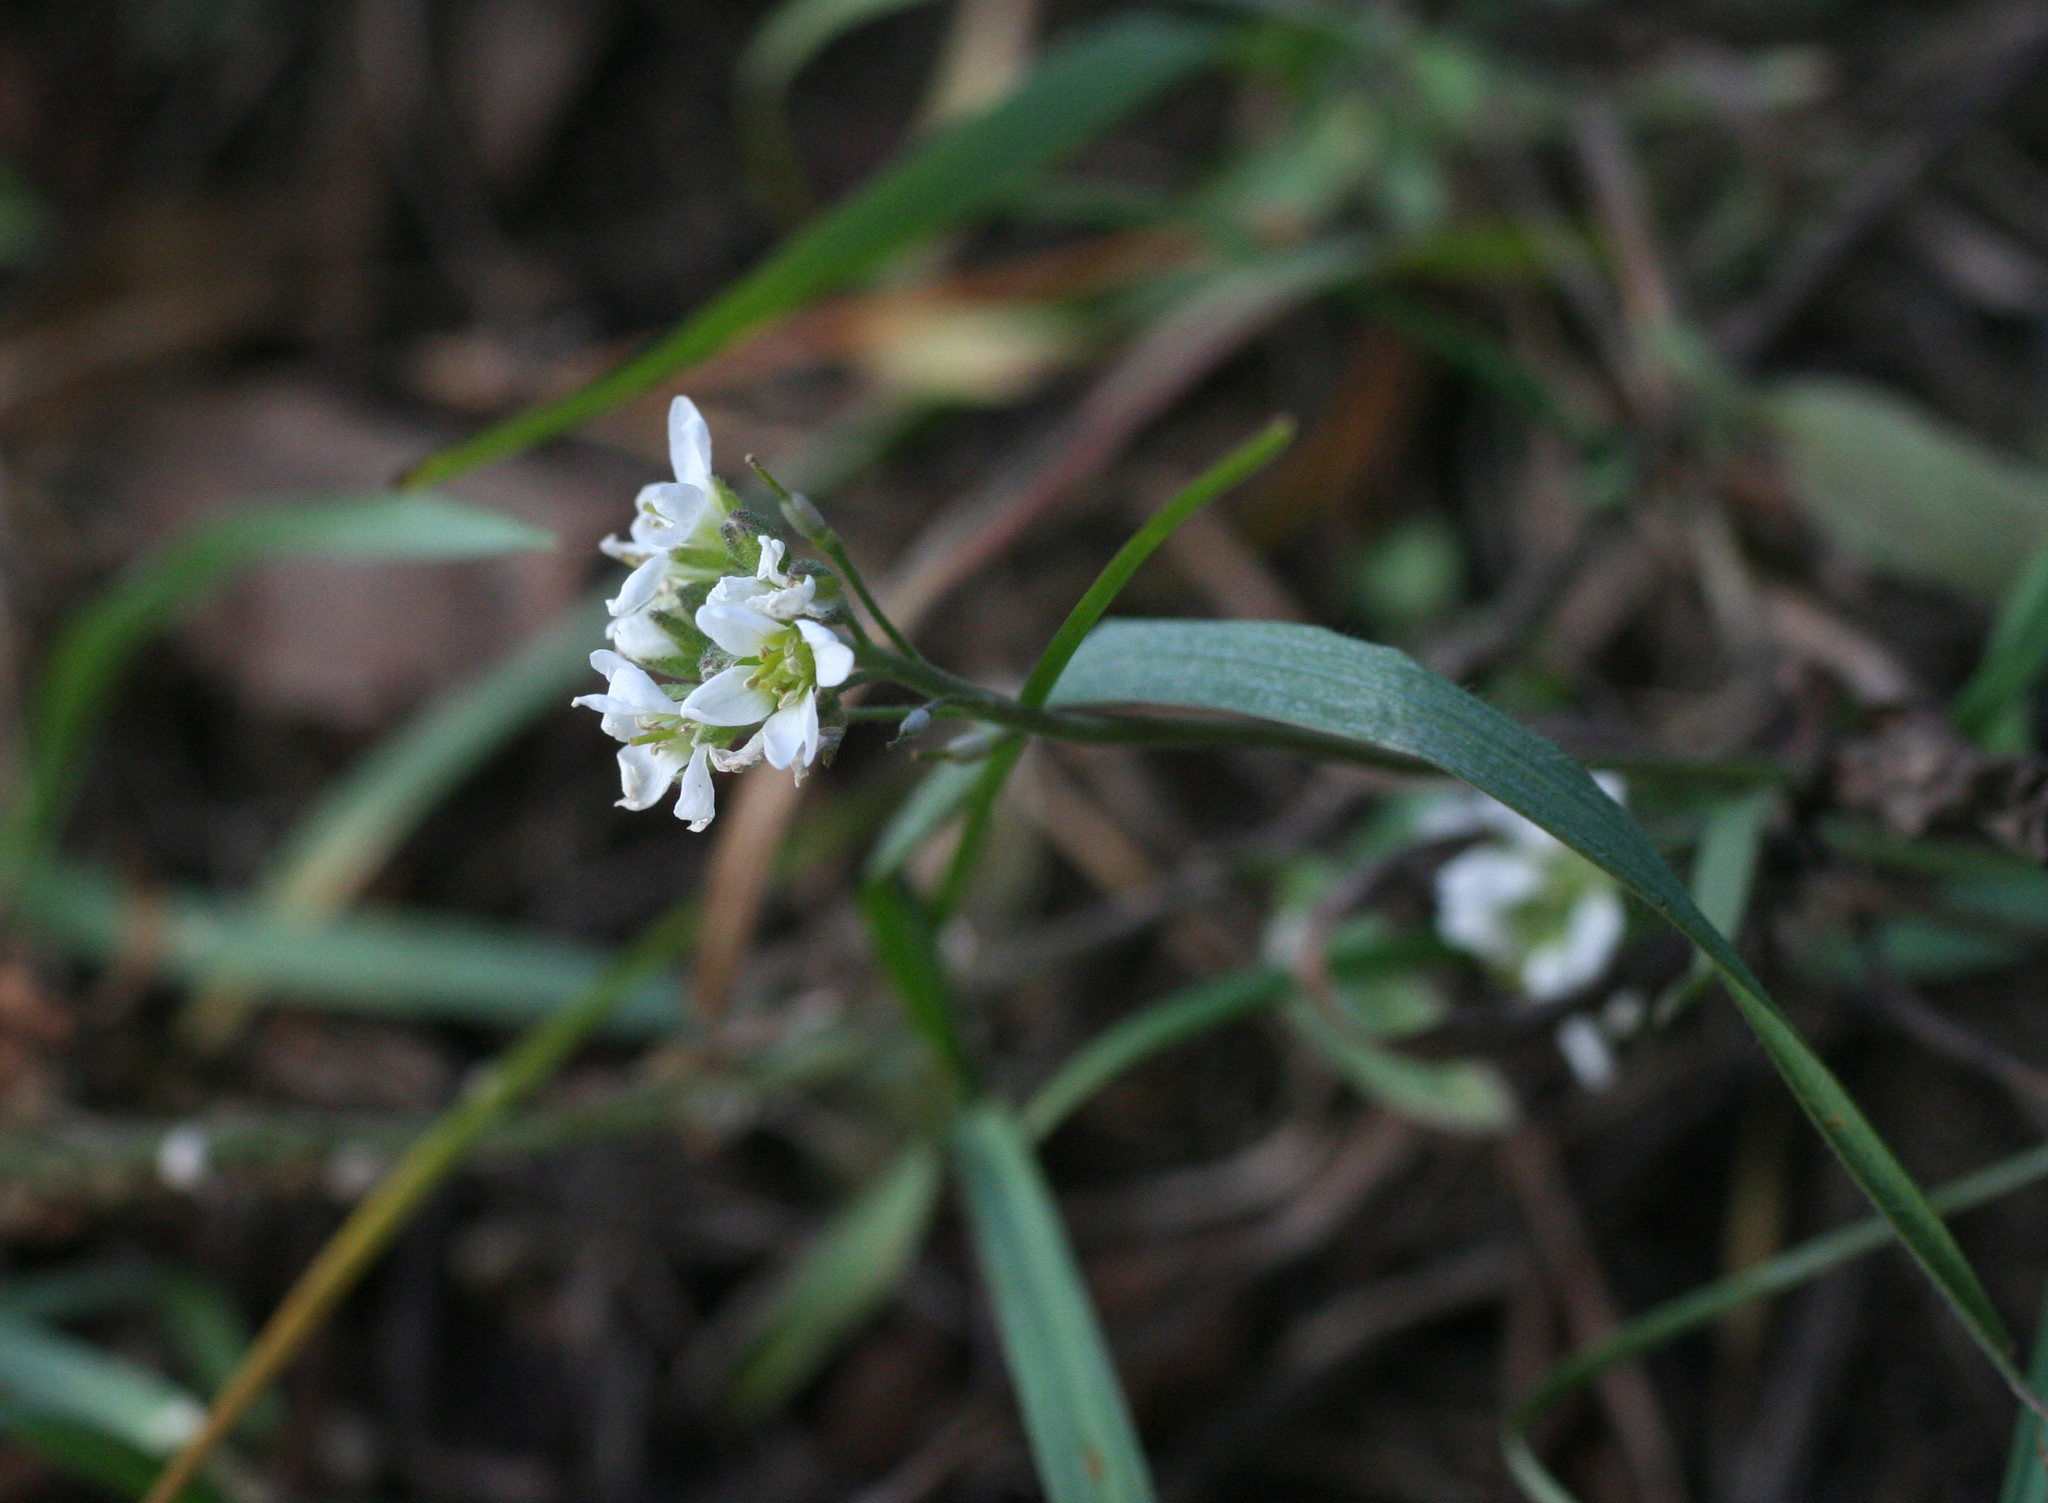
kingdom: Plantae
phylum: Tracheophyta
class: Magnoliopsida
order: Brassicales
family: Brassicaceae
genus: Berteroa
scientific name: Berteroa incana
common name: Hoary alison
